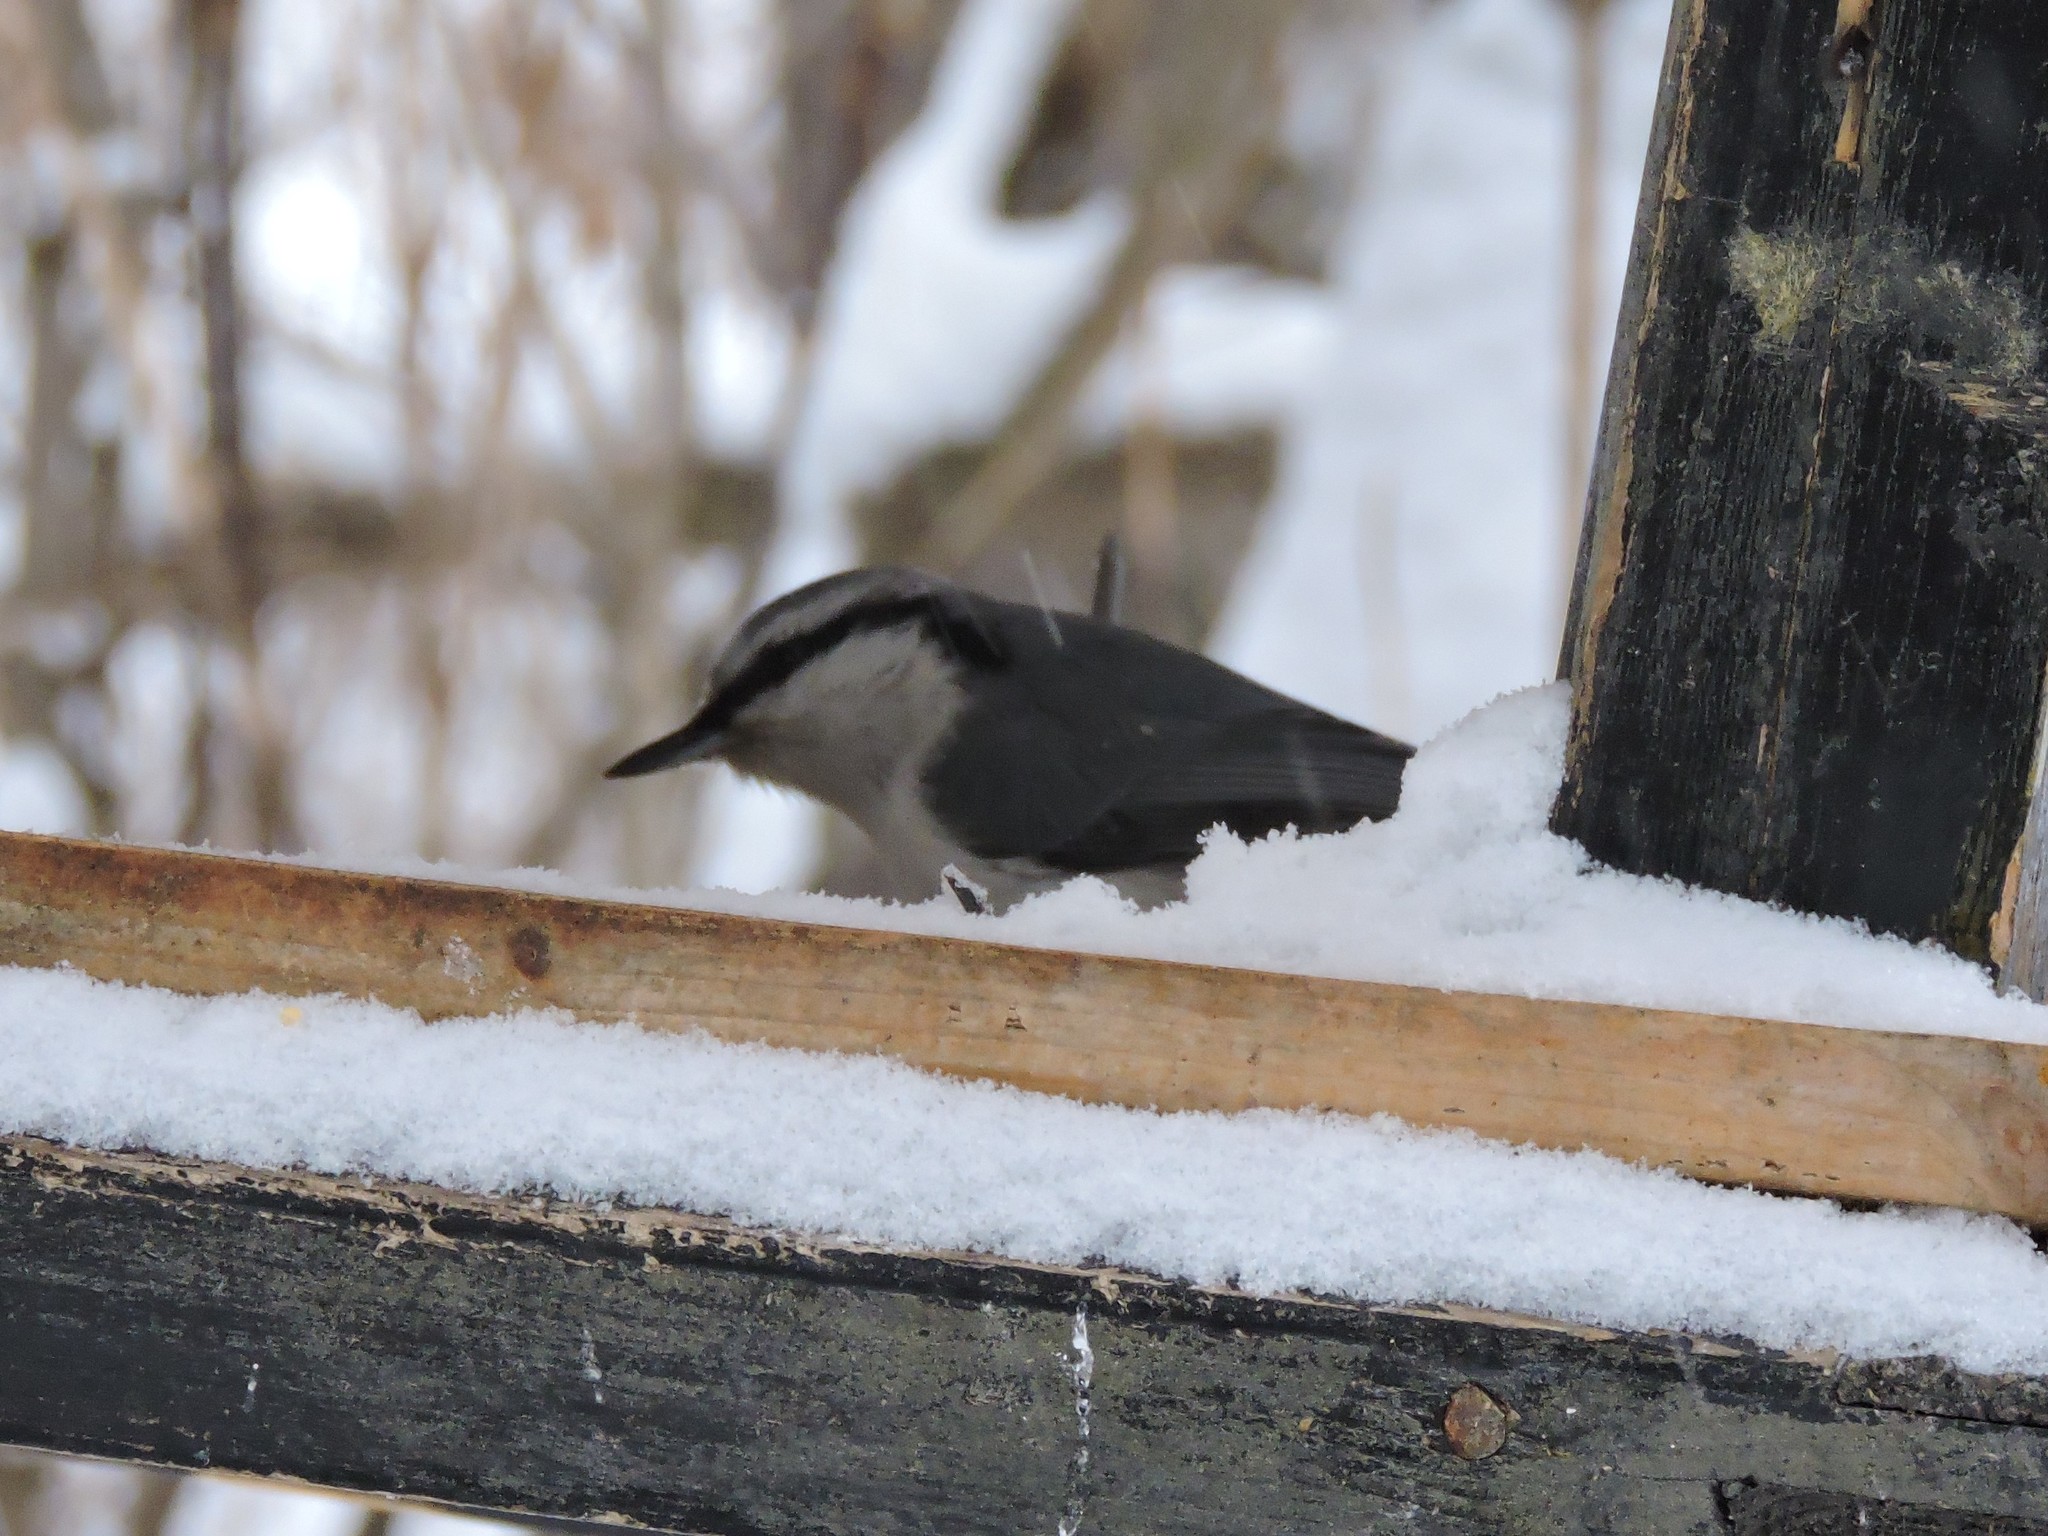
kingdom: Animalia
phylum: Chordata
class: Aves
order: Passeriformes
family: Sittidae
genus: Sitta
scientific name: Sitta europaea
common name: Eurasian nuthatch
